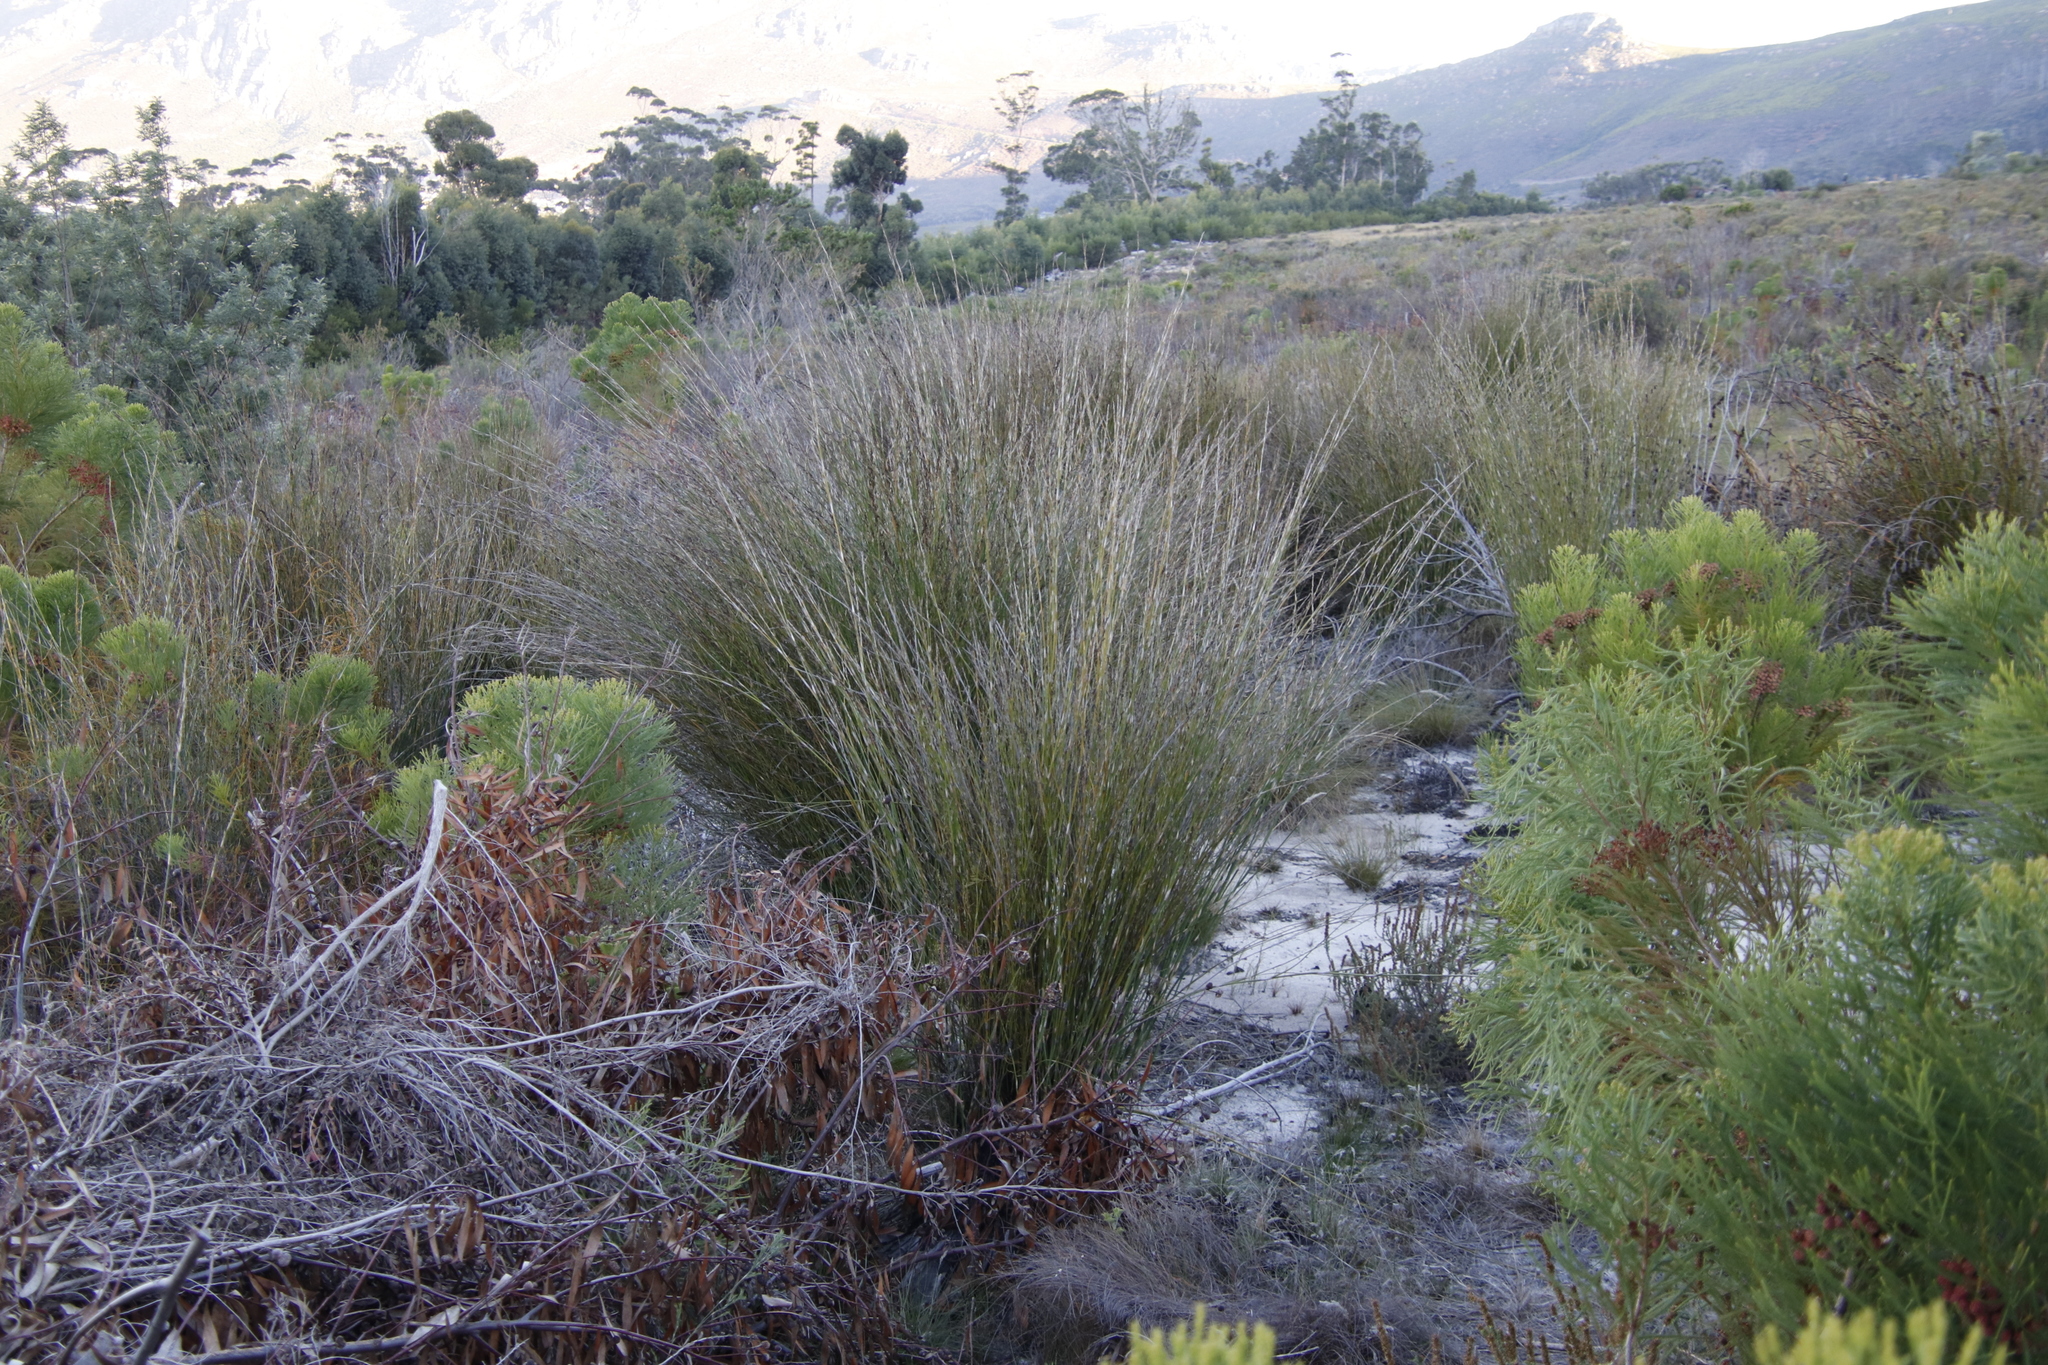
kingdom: Plantae
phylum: Tracheophyta
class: Liliopsida
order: Poales
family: Restionaceae
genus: Restio
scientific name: Restio tetragonus
